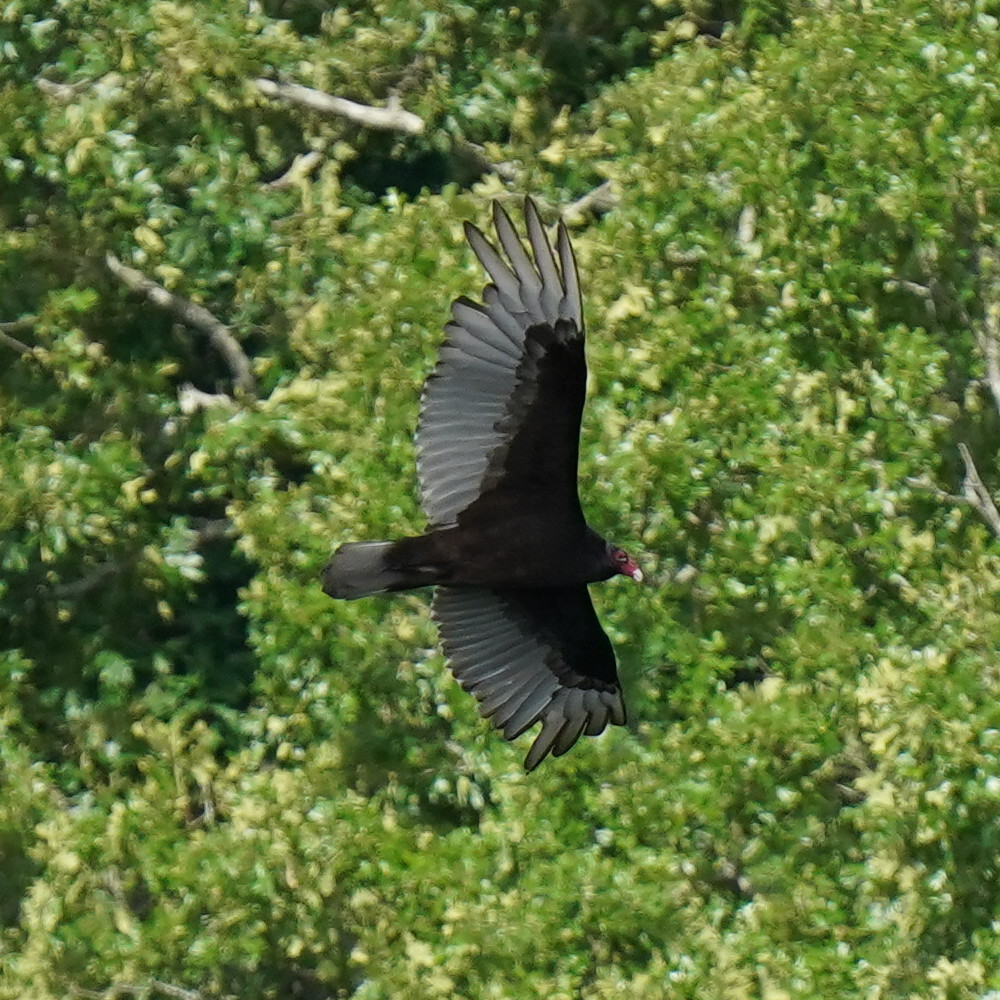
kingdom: Animalia
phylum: Chordata
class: Aves
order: Accipitriformes
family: Cathartidae
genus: Cathartes
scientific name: Cathartes aura
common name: Turkey vulture
